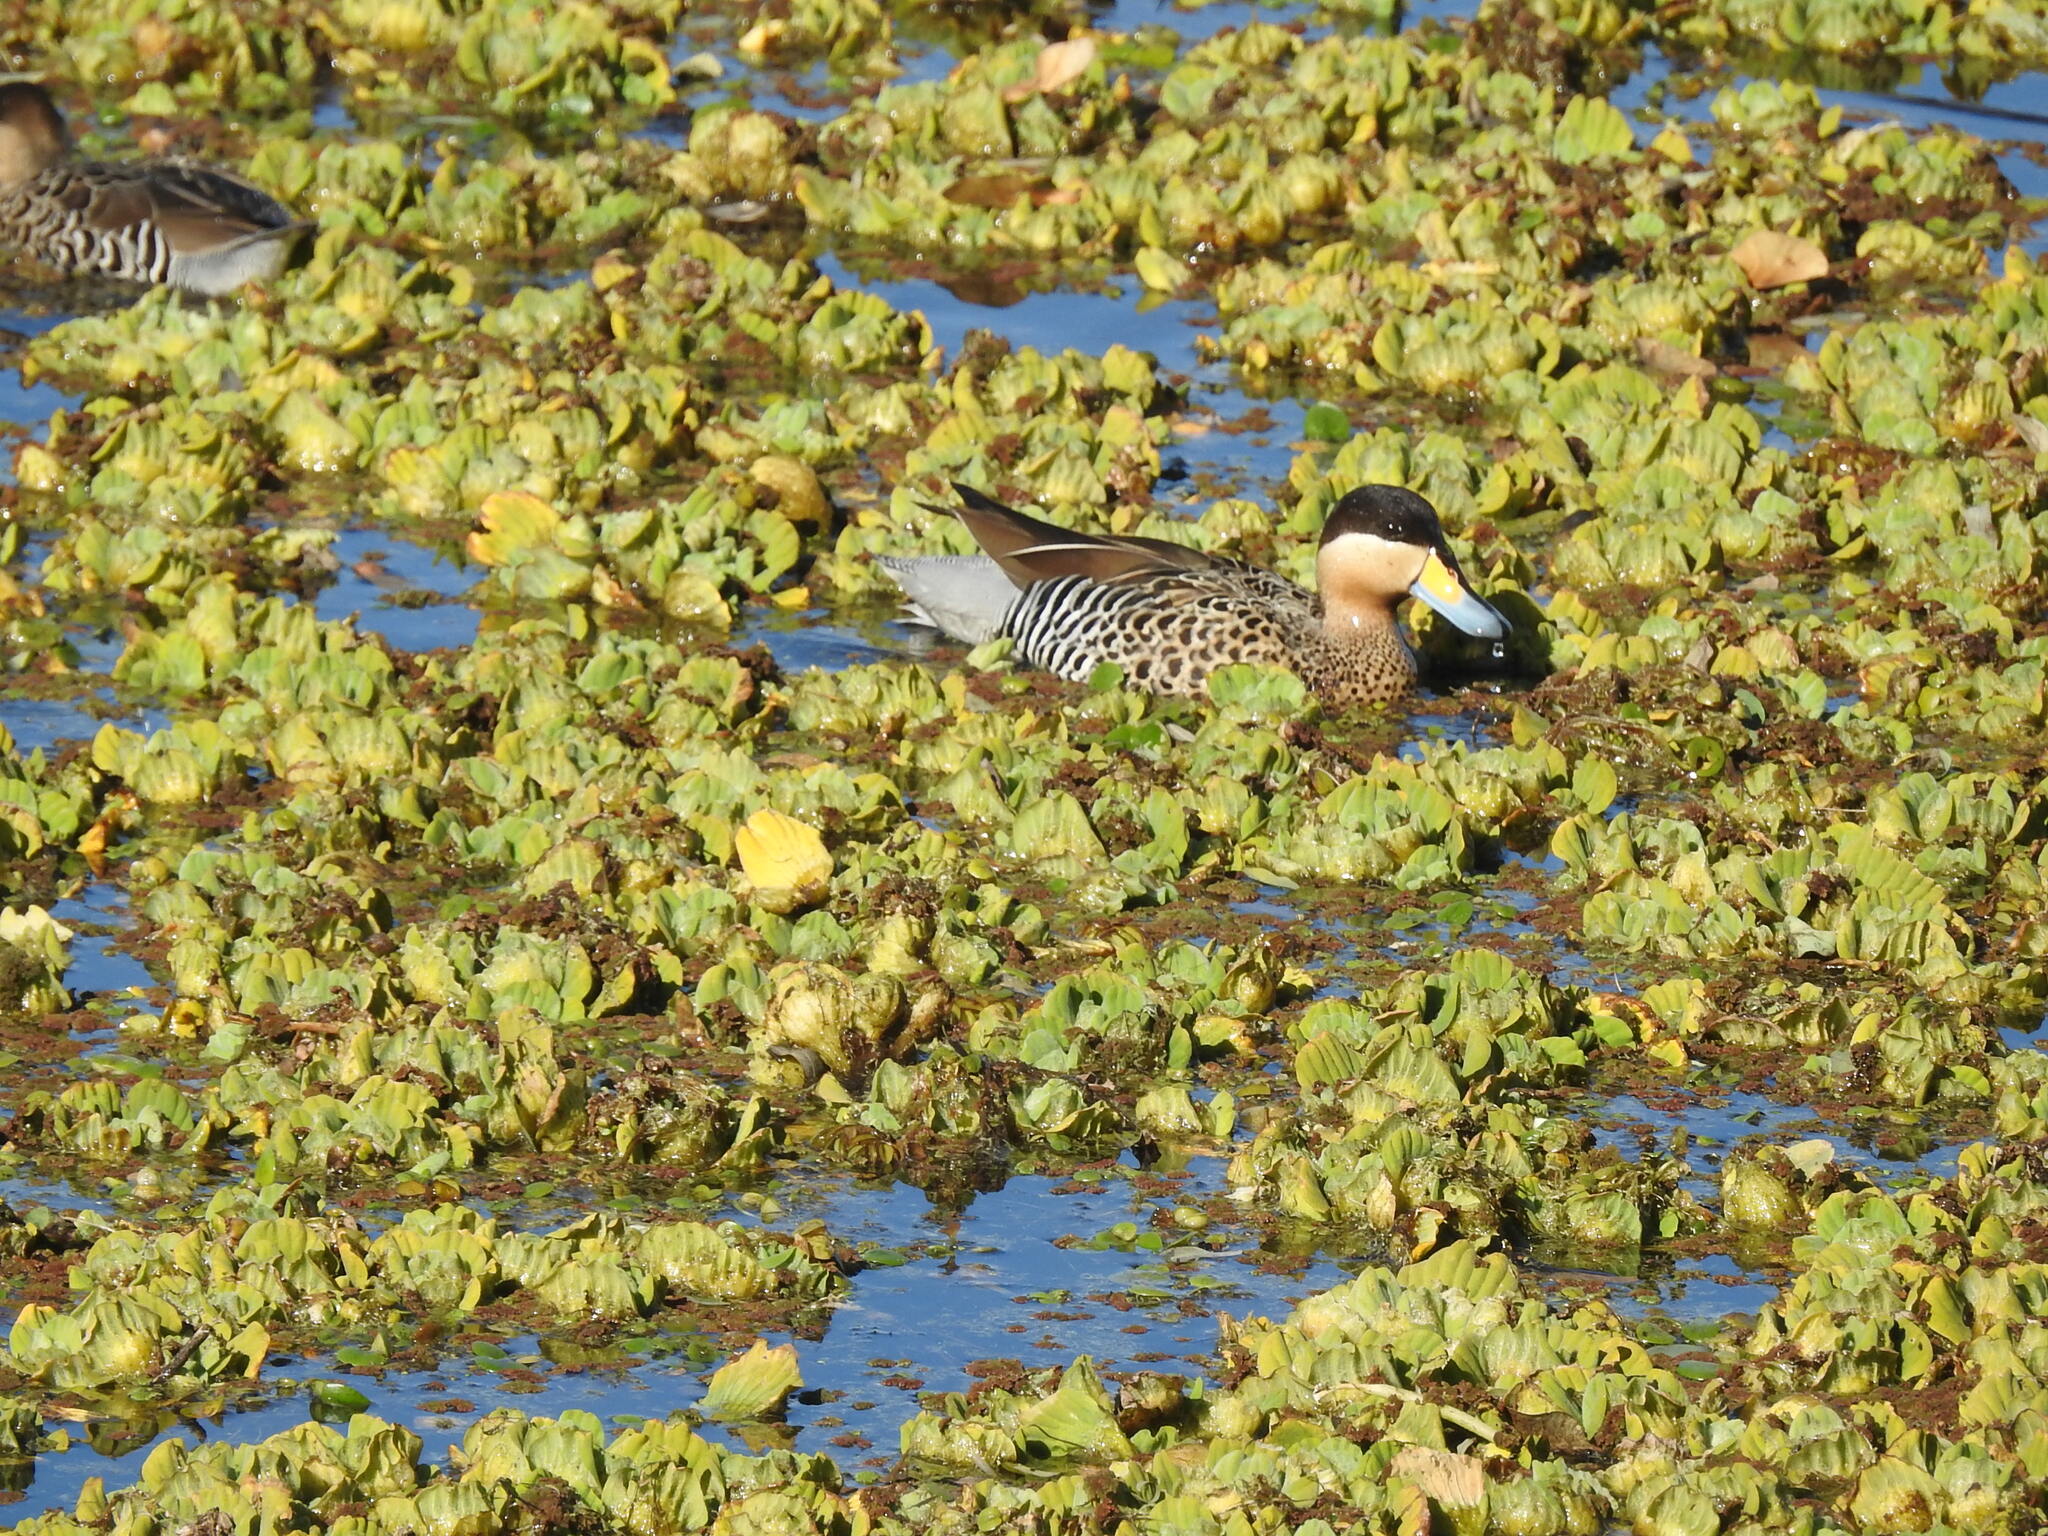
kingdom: Animalia
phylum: Chordata
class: Aves
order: Anseriformes
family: Anatidae
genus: Spatula
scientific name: Spatula versicolor
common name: Silver teal
